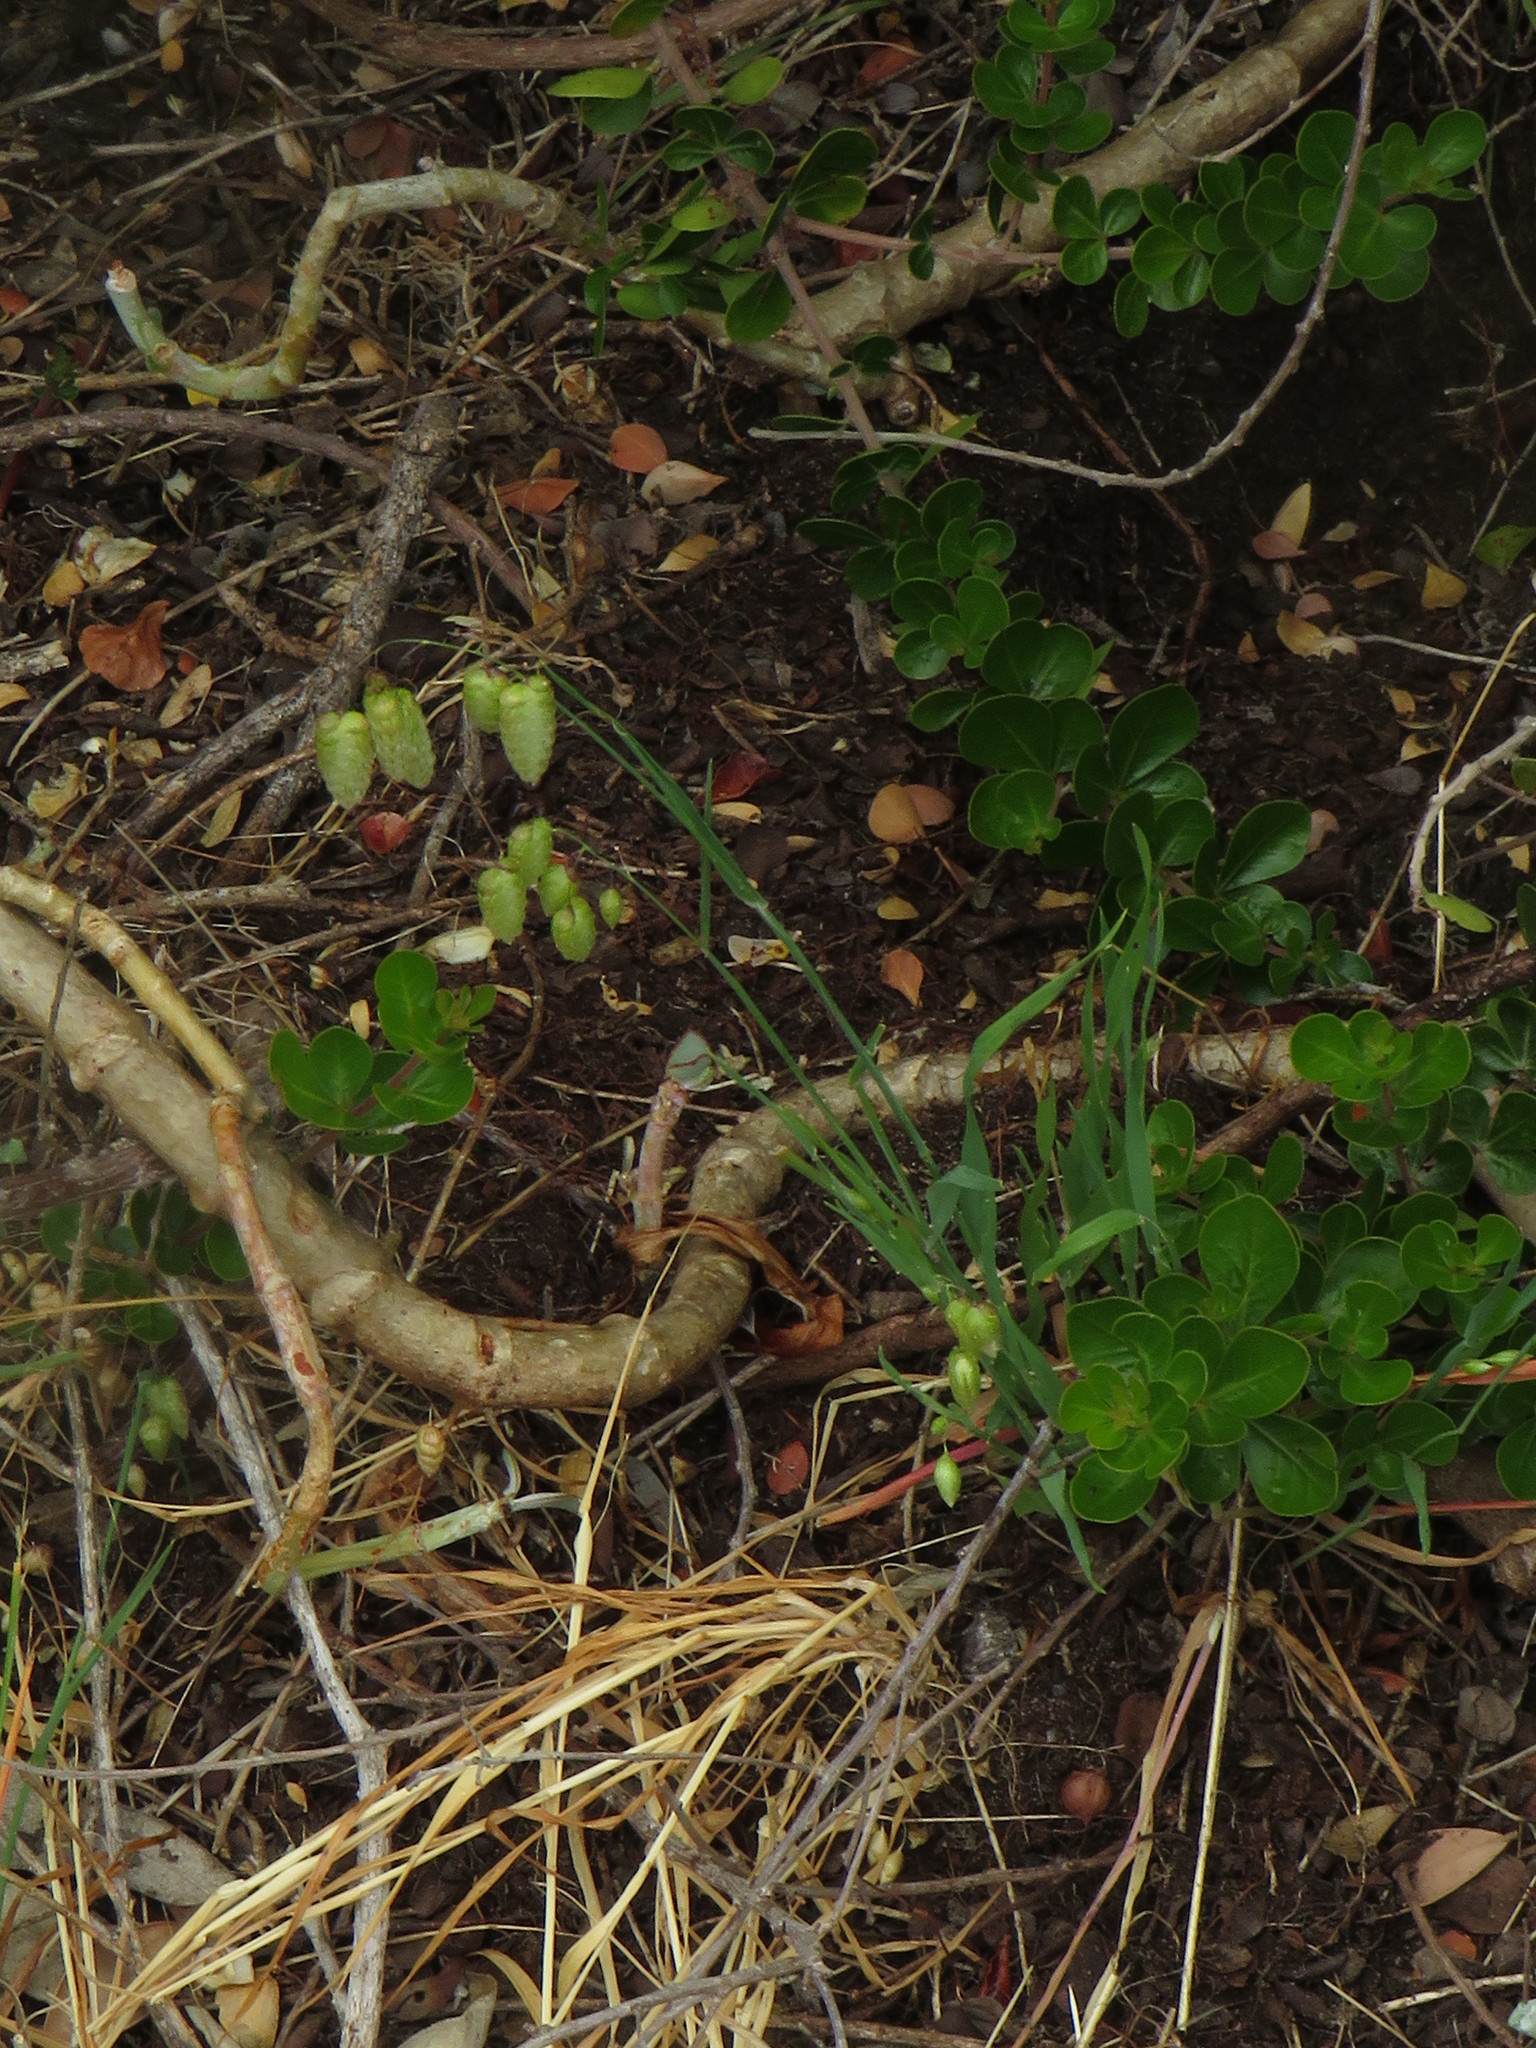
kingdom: Plantae
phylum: Tracheophyta
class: Liliopsida
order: Poales
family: Poaceae
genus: Briza
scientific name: Briza maxima
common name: Big quakinggrass
